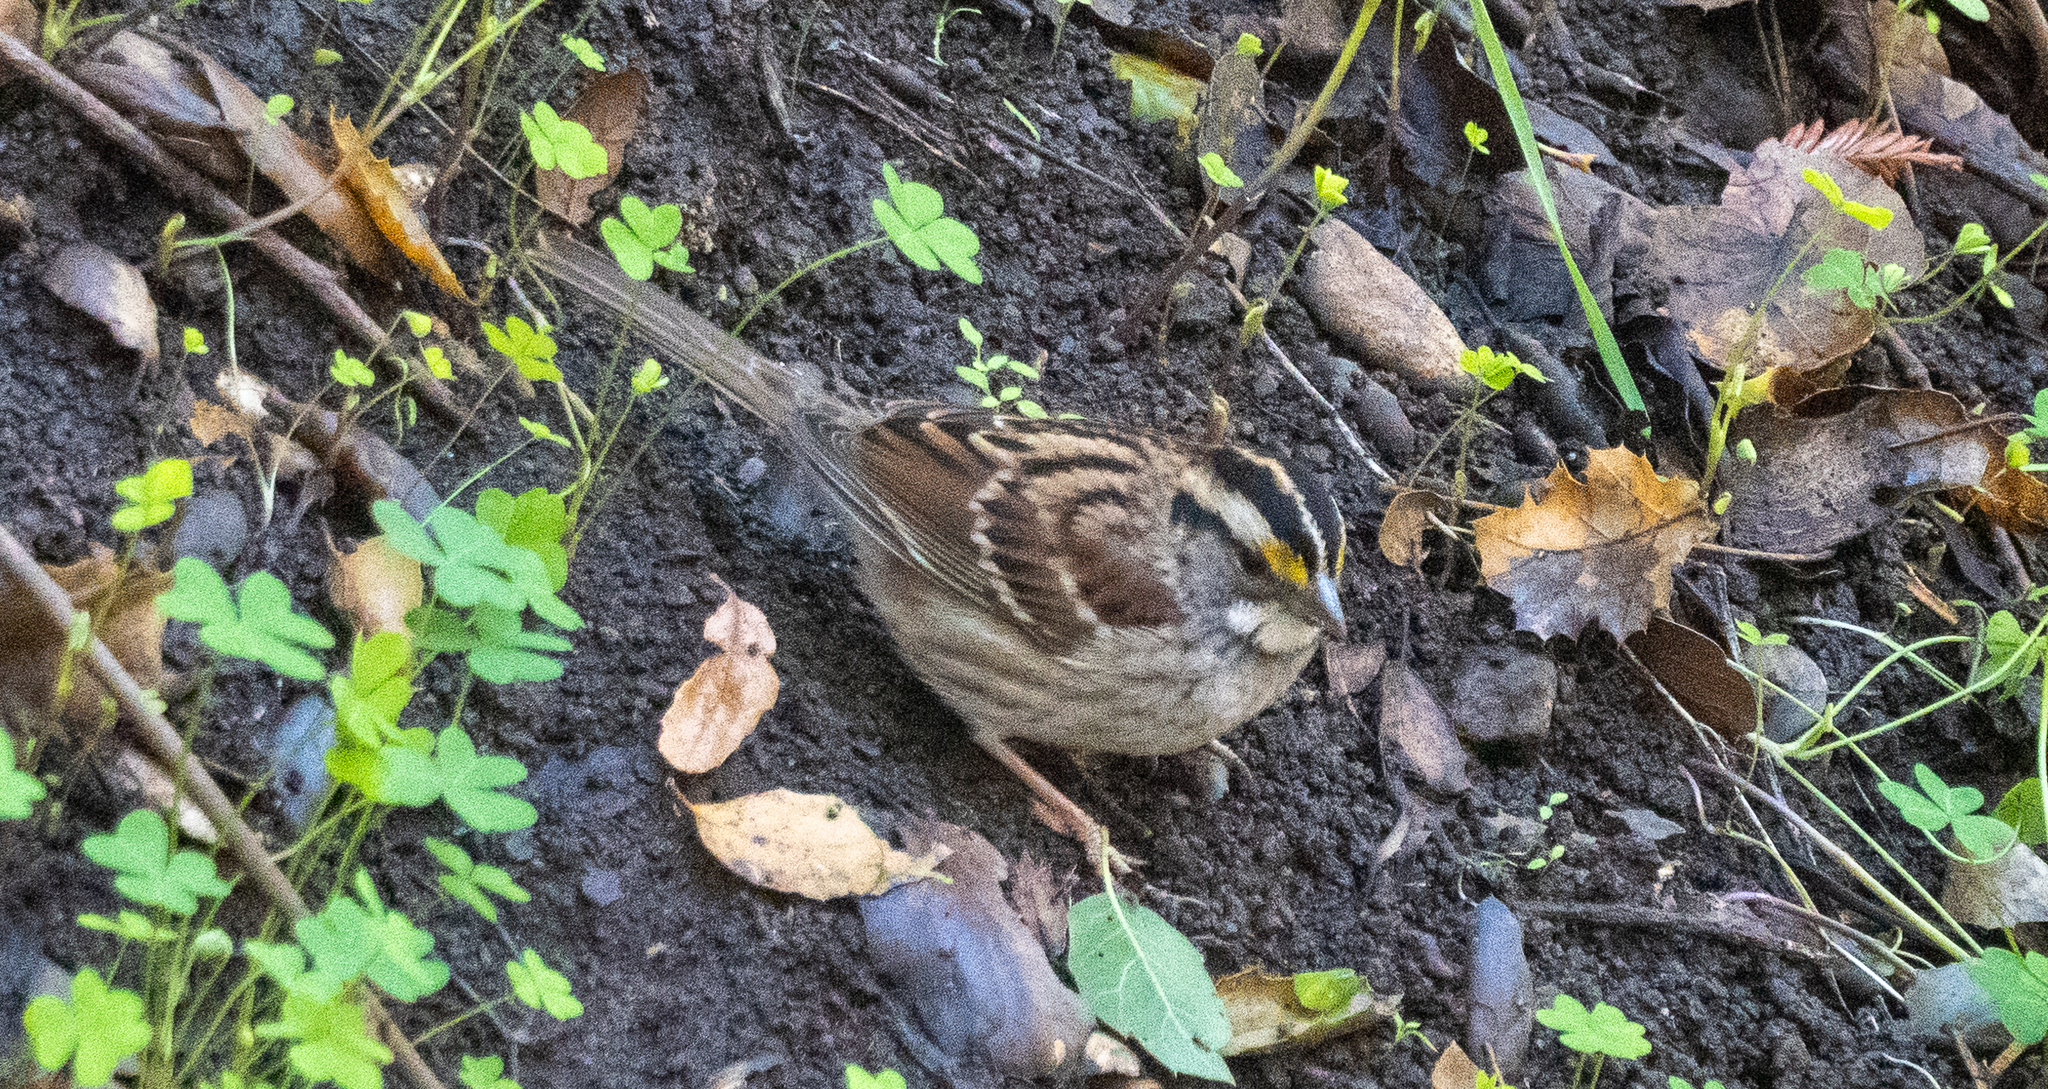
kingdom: Animalia
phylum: Chordata
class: Aves
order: Passeriformes
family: Passerellidae
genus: Zonotrichia
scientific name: Zonotrichia albicollis
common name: White-throated sparrow
